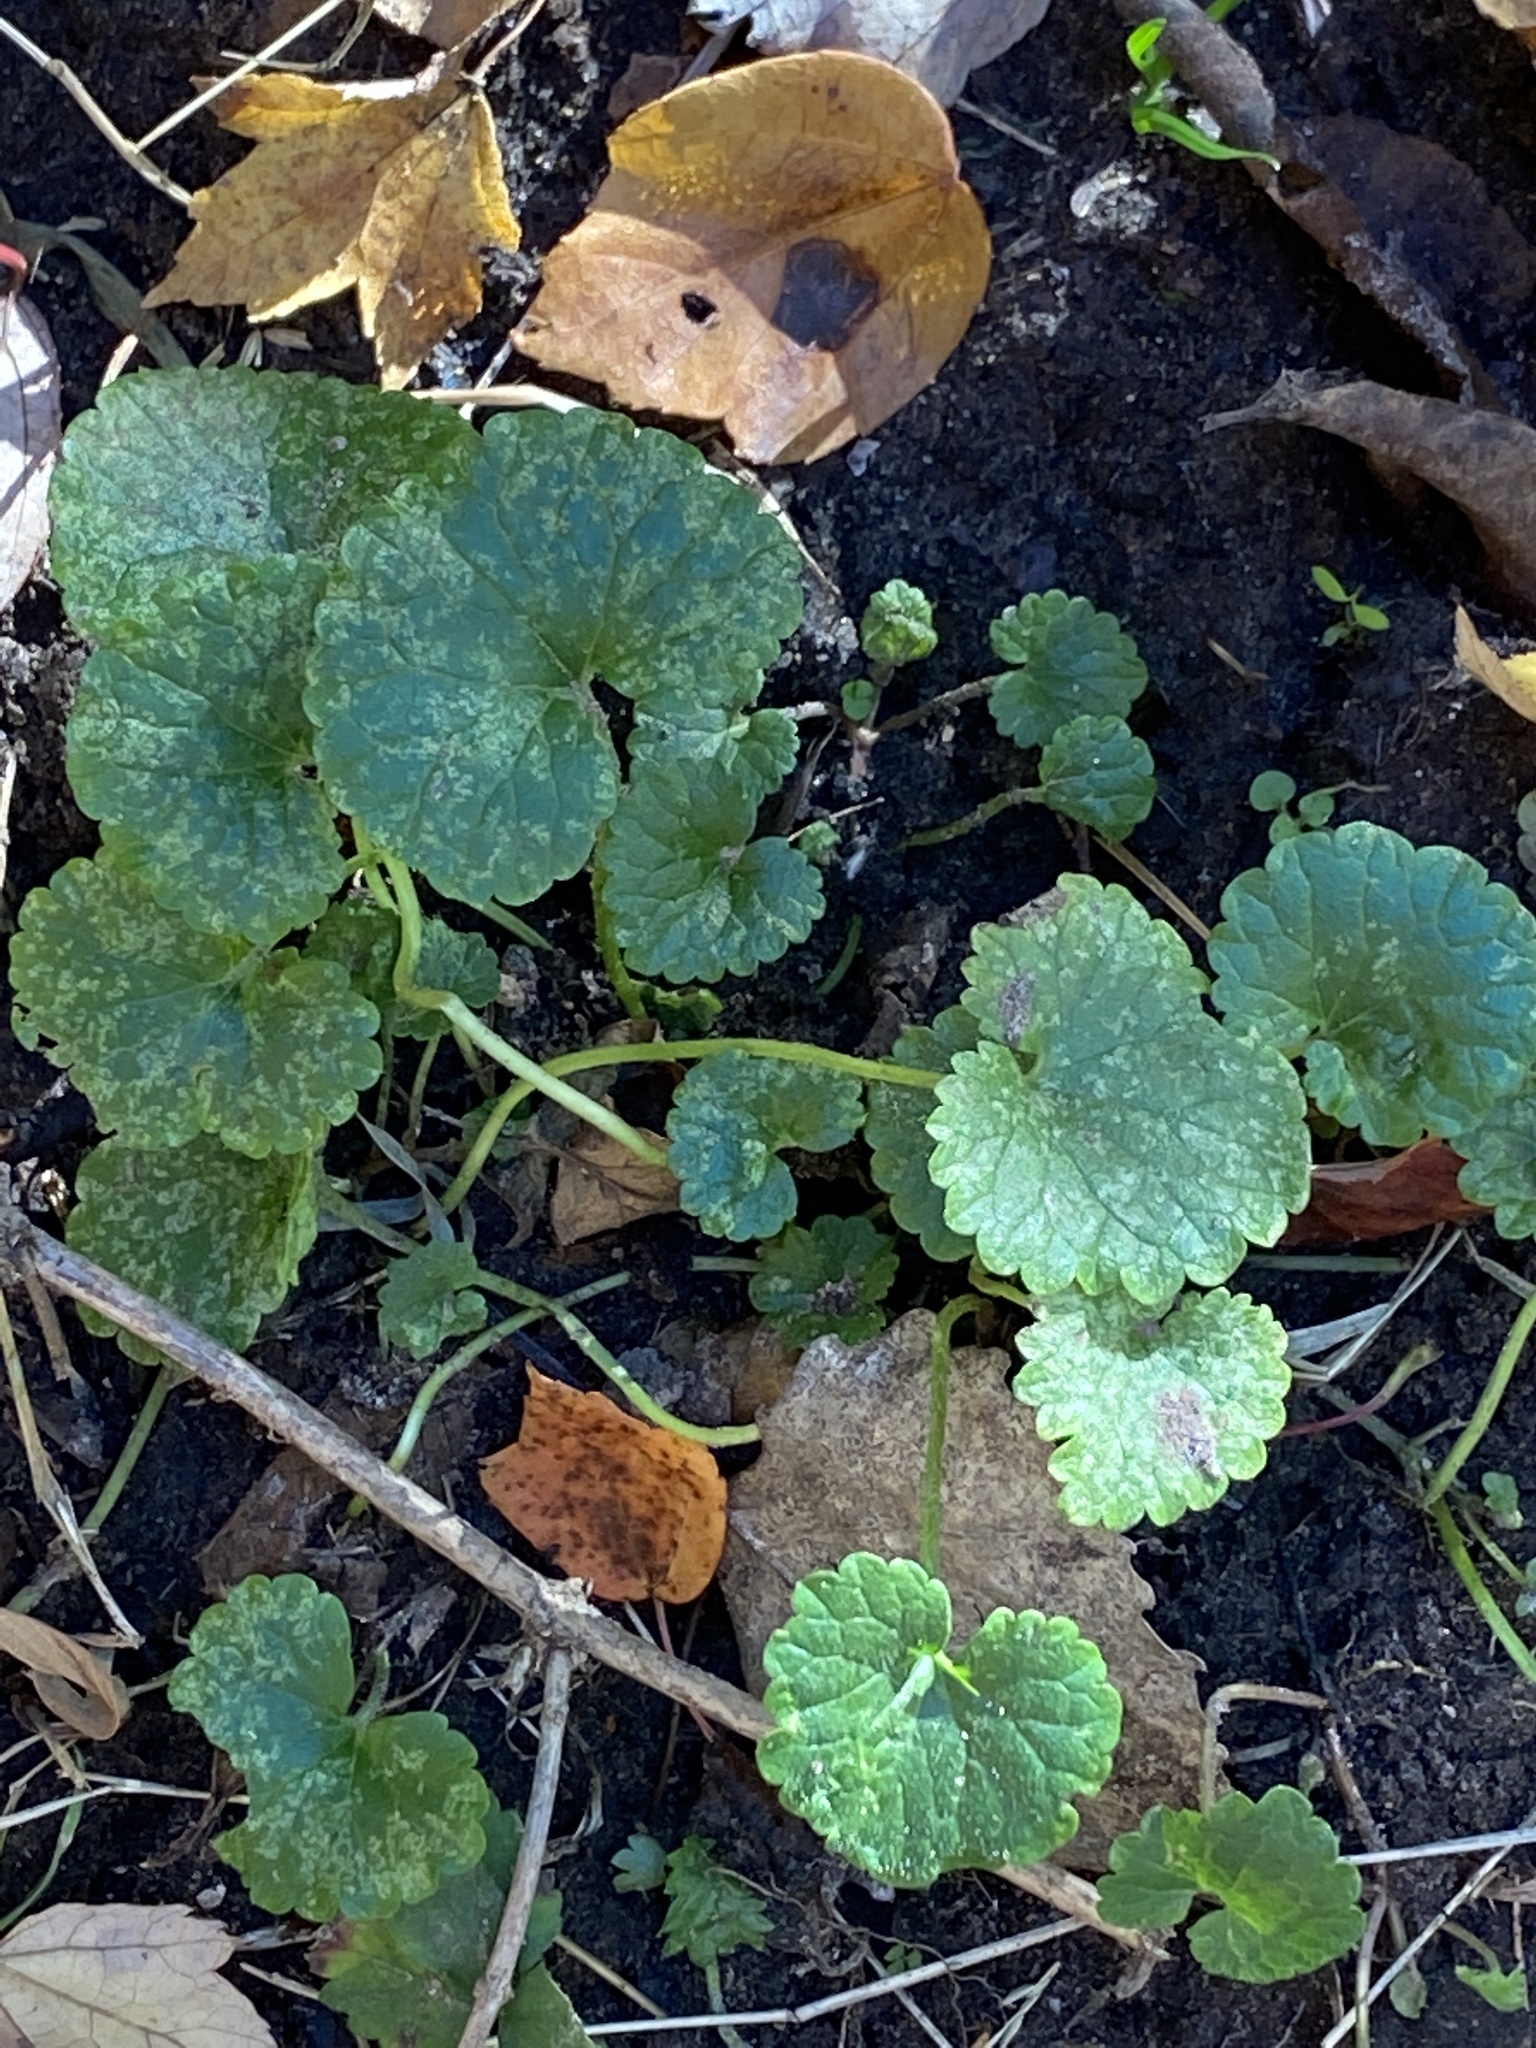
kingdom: Plantae
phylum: Tracheophyta
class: Magnoliopsida
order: Lamiales
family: Lamiaceae
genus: Glechoma
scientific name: Glechoma hederacea
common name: Ground ivy
